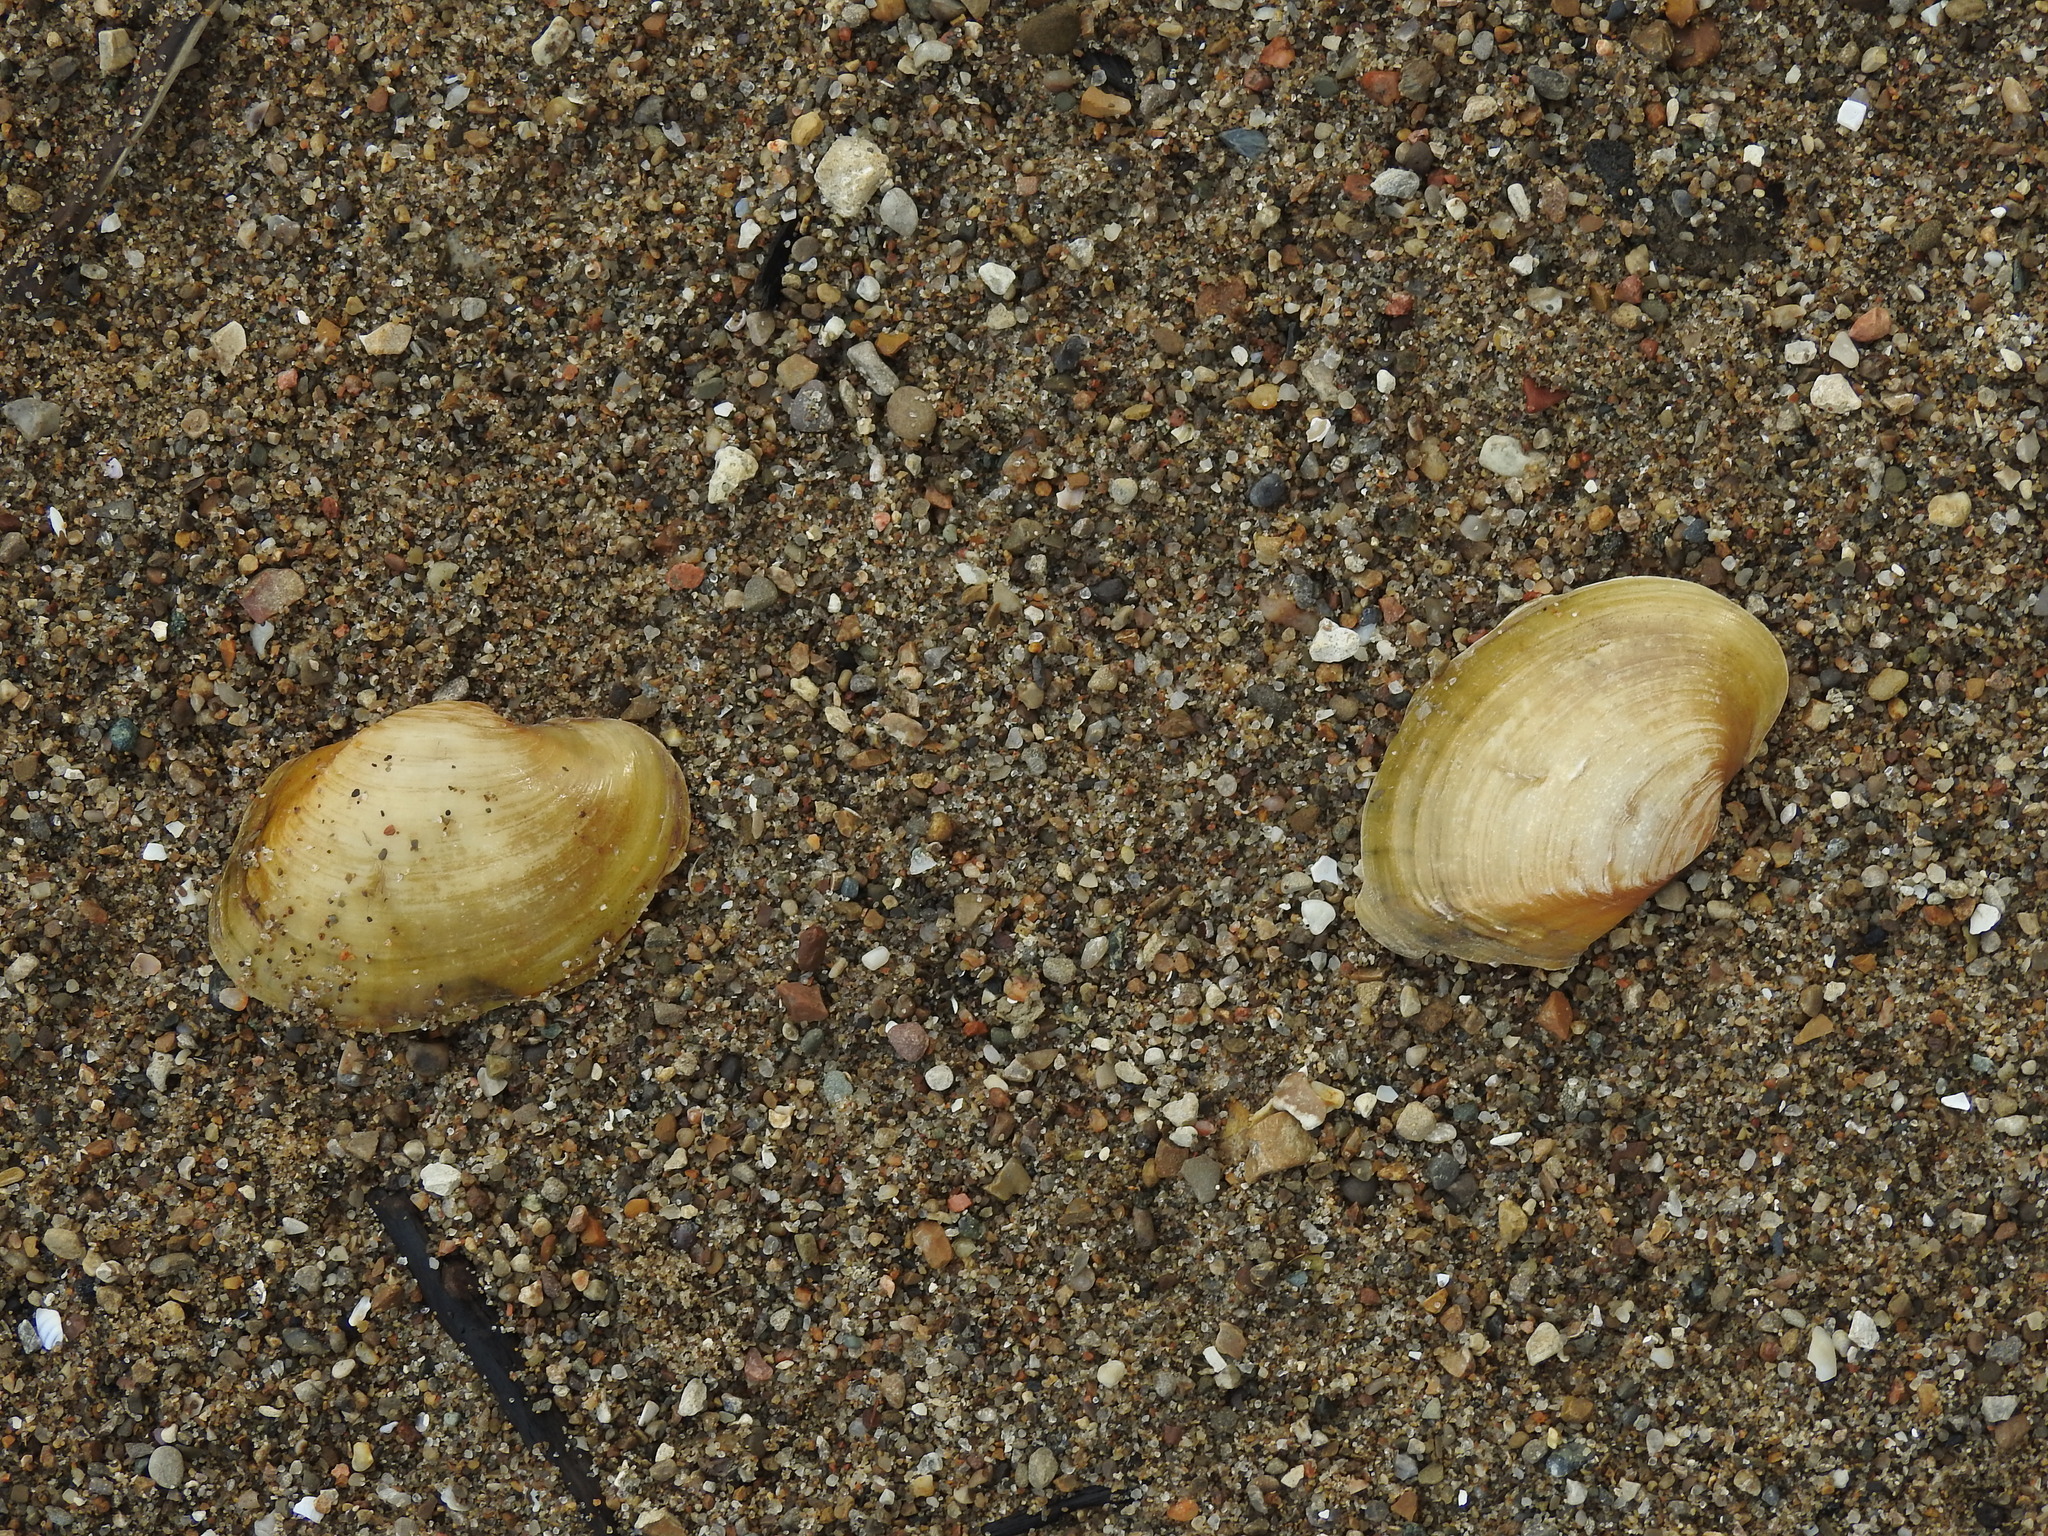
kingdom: Animalia
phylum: Mollusca
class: Bivalvia
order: Unionida
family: Unionidae
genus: Lampsilis
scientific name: Lampsilis cardium
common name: Plain pocketbook
